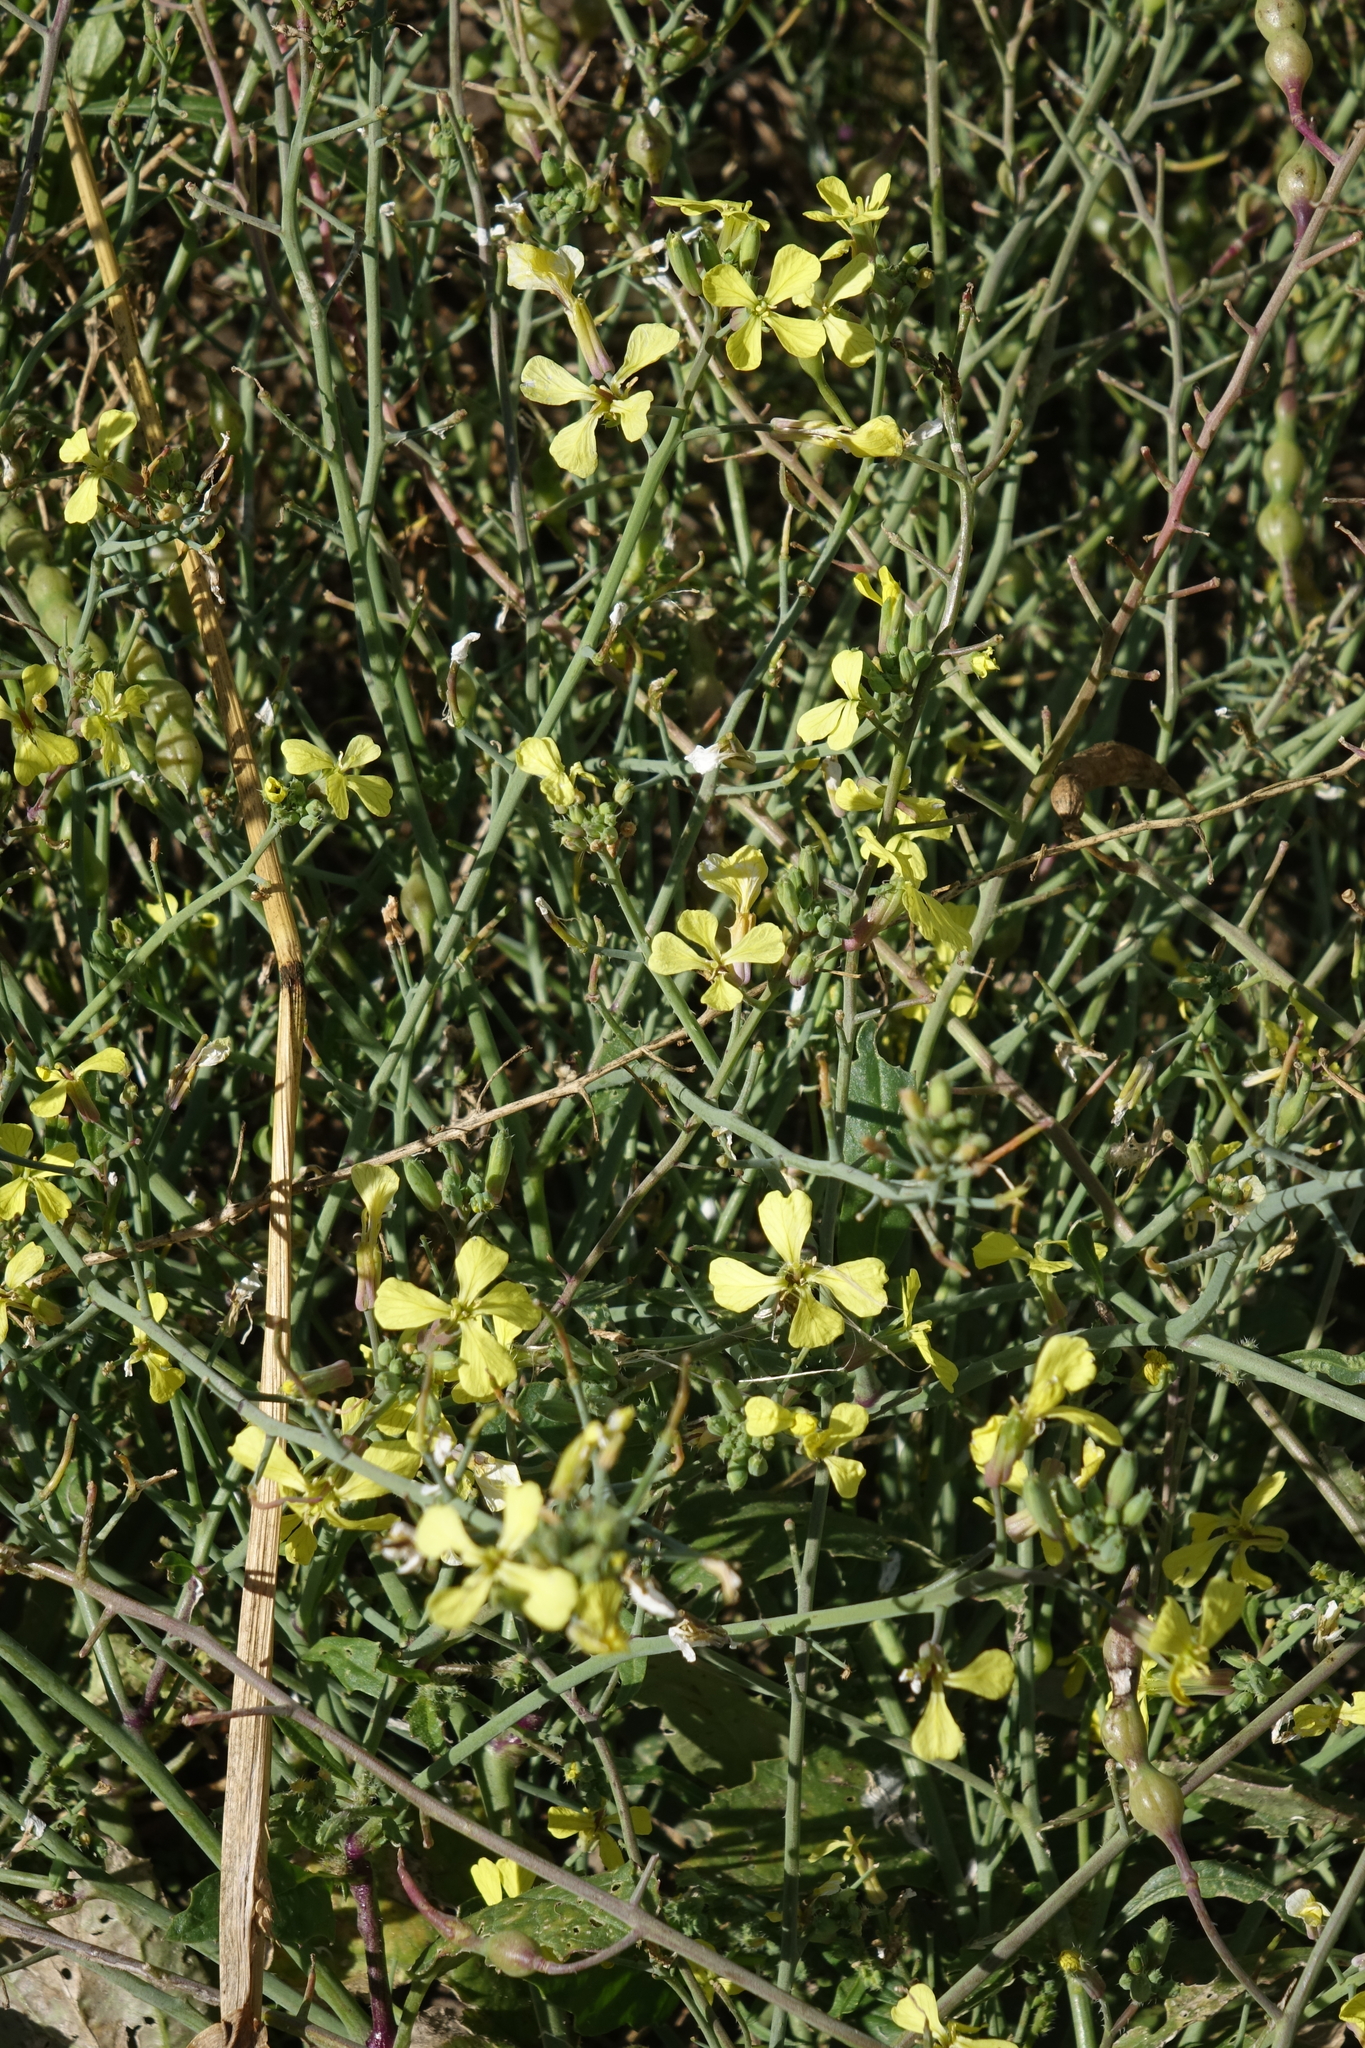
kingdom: Plantae
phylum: Tracheophyta
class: Magnoliopsida
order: Brassicales
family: Brassicaceae
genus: Raphanus
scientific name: Raphanus raphanistrum
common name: Wild radish
